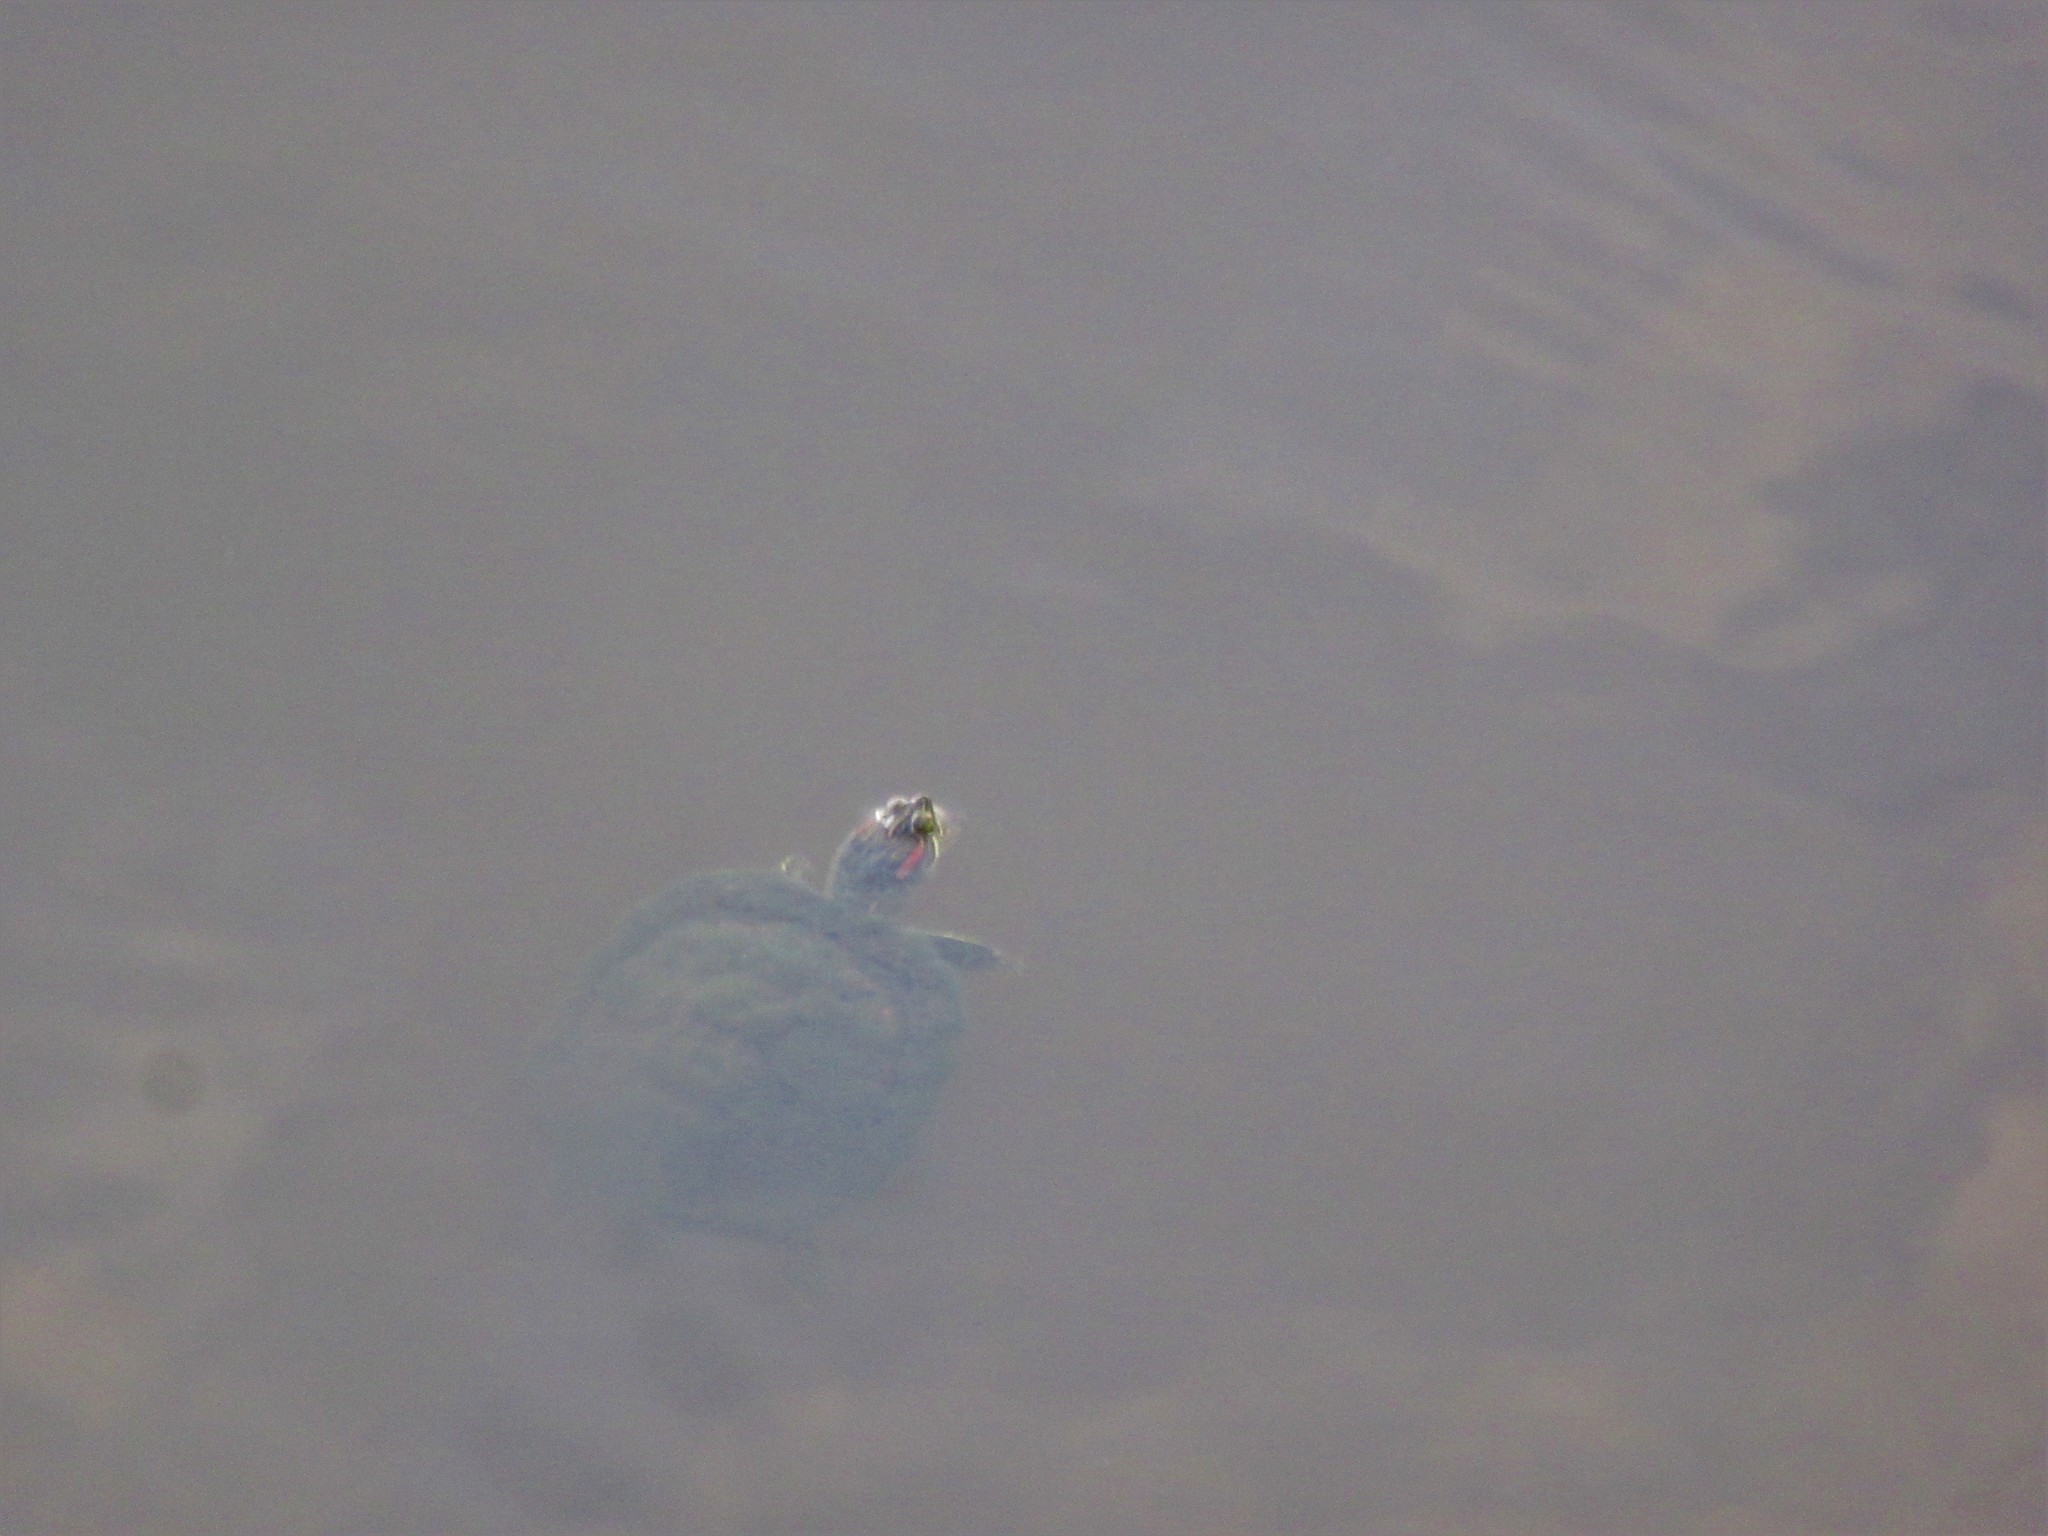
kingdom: Animalia
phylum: Chordata
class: Testudines
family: Emydidae
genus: Trachemys
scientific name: Trachemys scripta
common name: Slider
